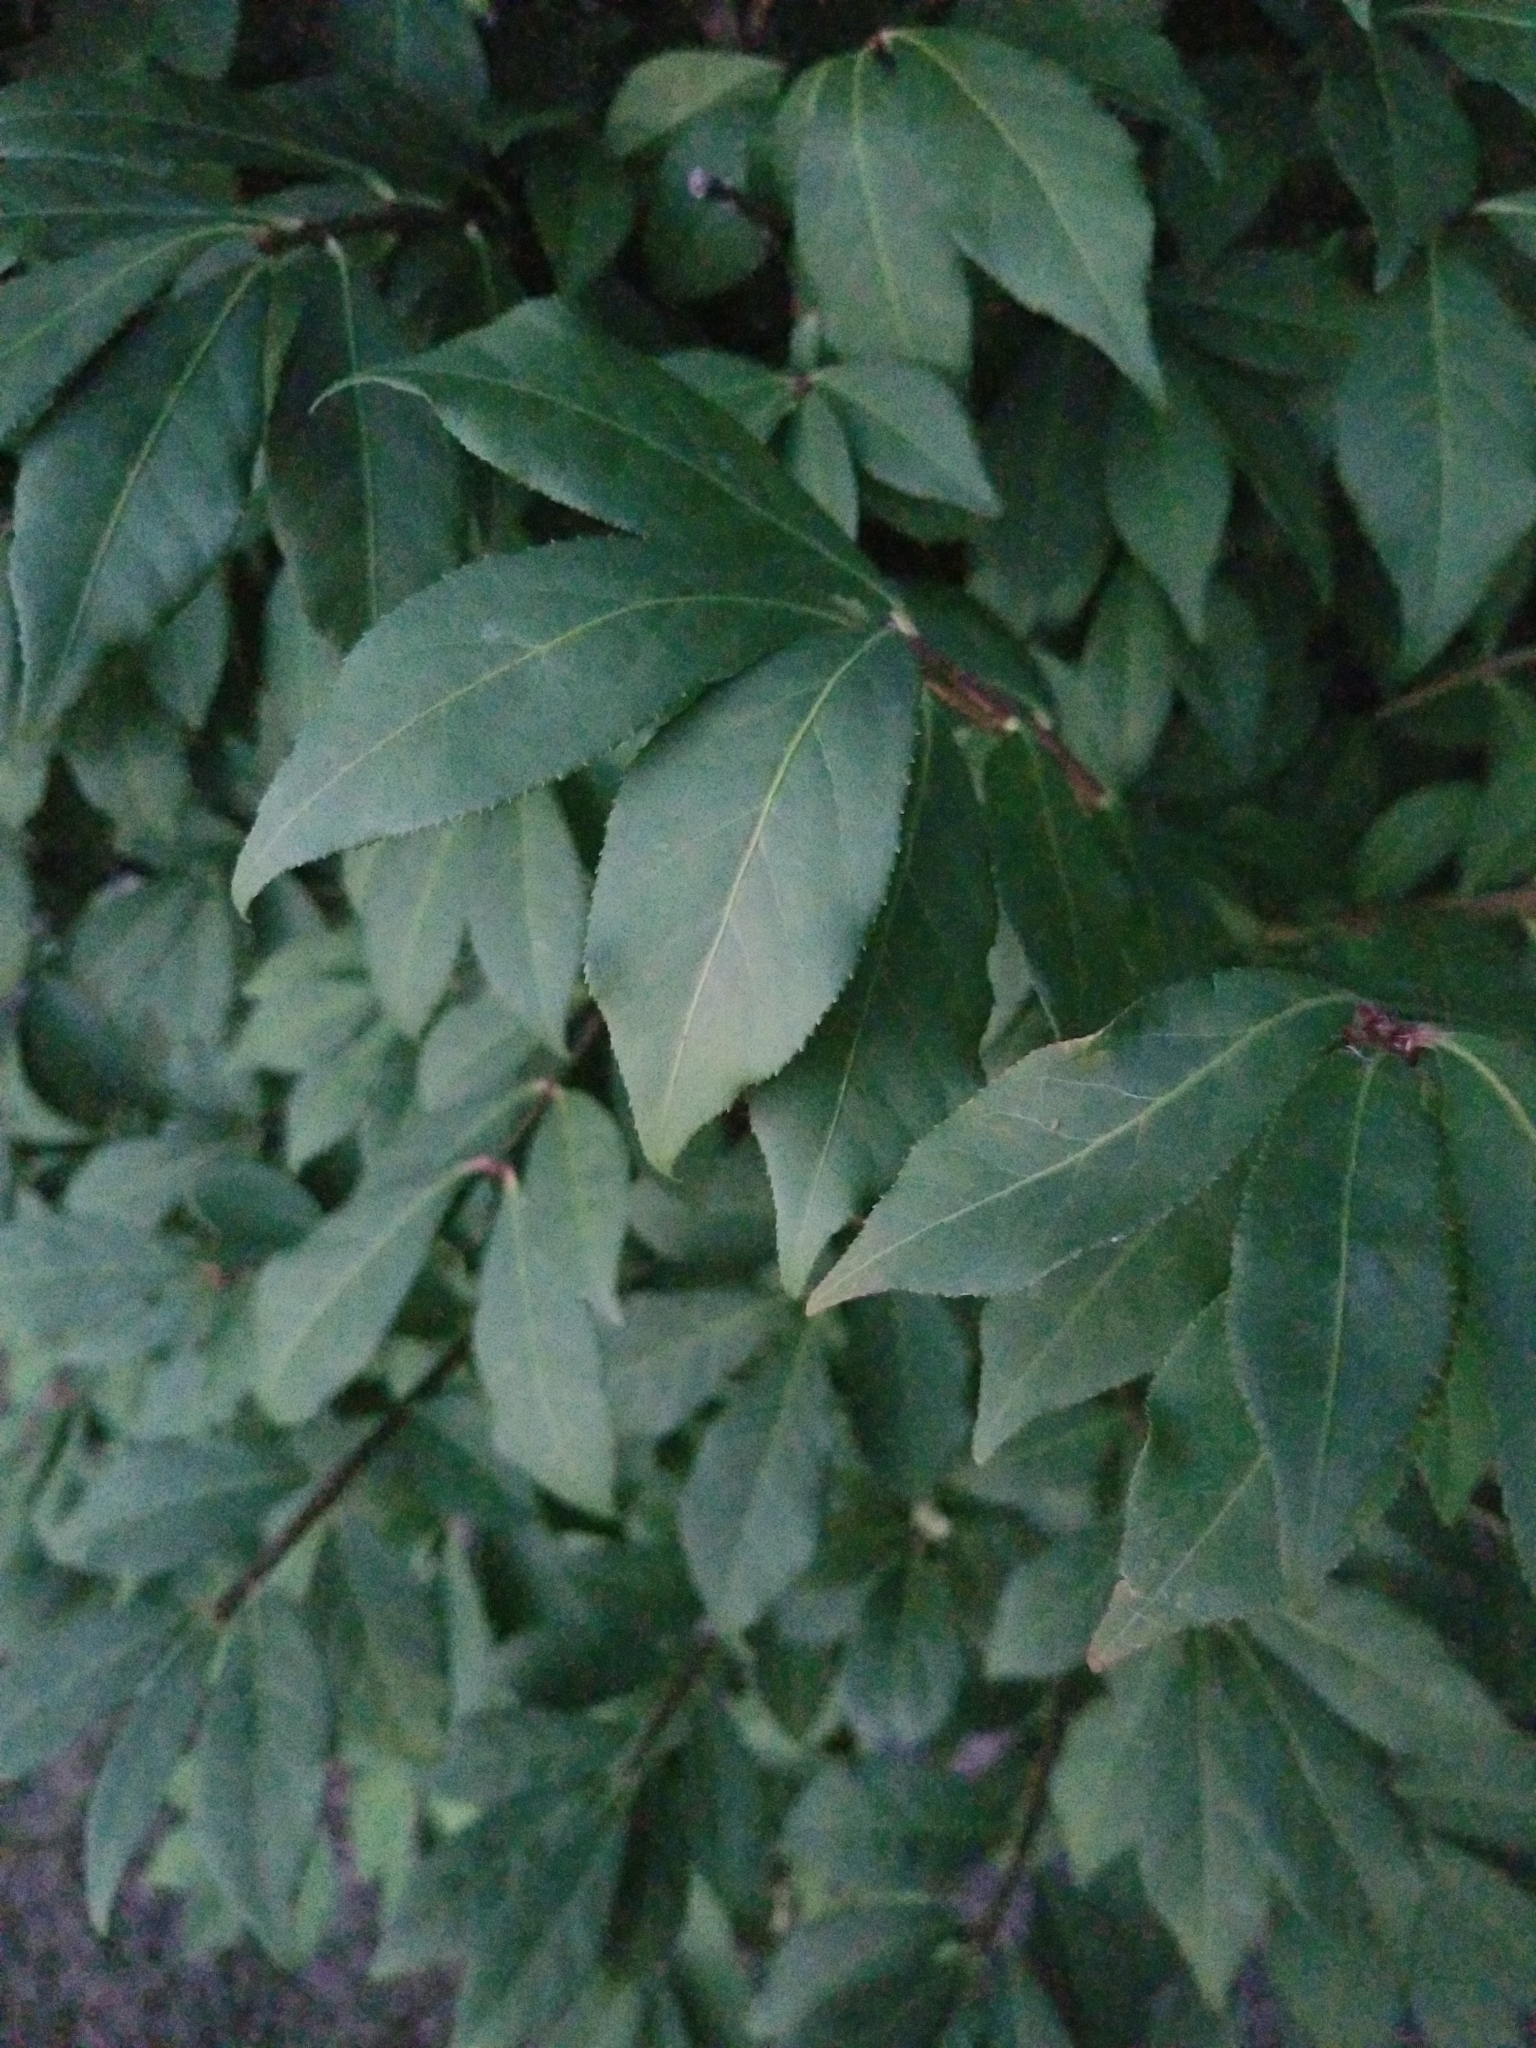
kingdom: Plantae
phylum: Tracheophyta
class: Magnoliopsida
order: Celastrales
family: Celastraceae
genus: Euonymus
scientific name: Euonymus alatus
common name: Winged euonymus
